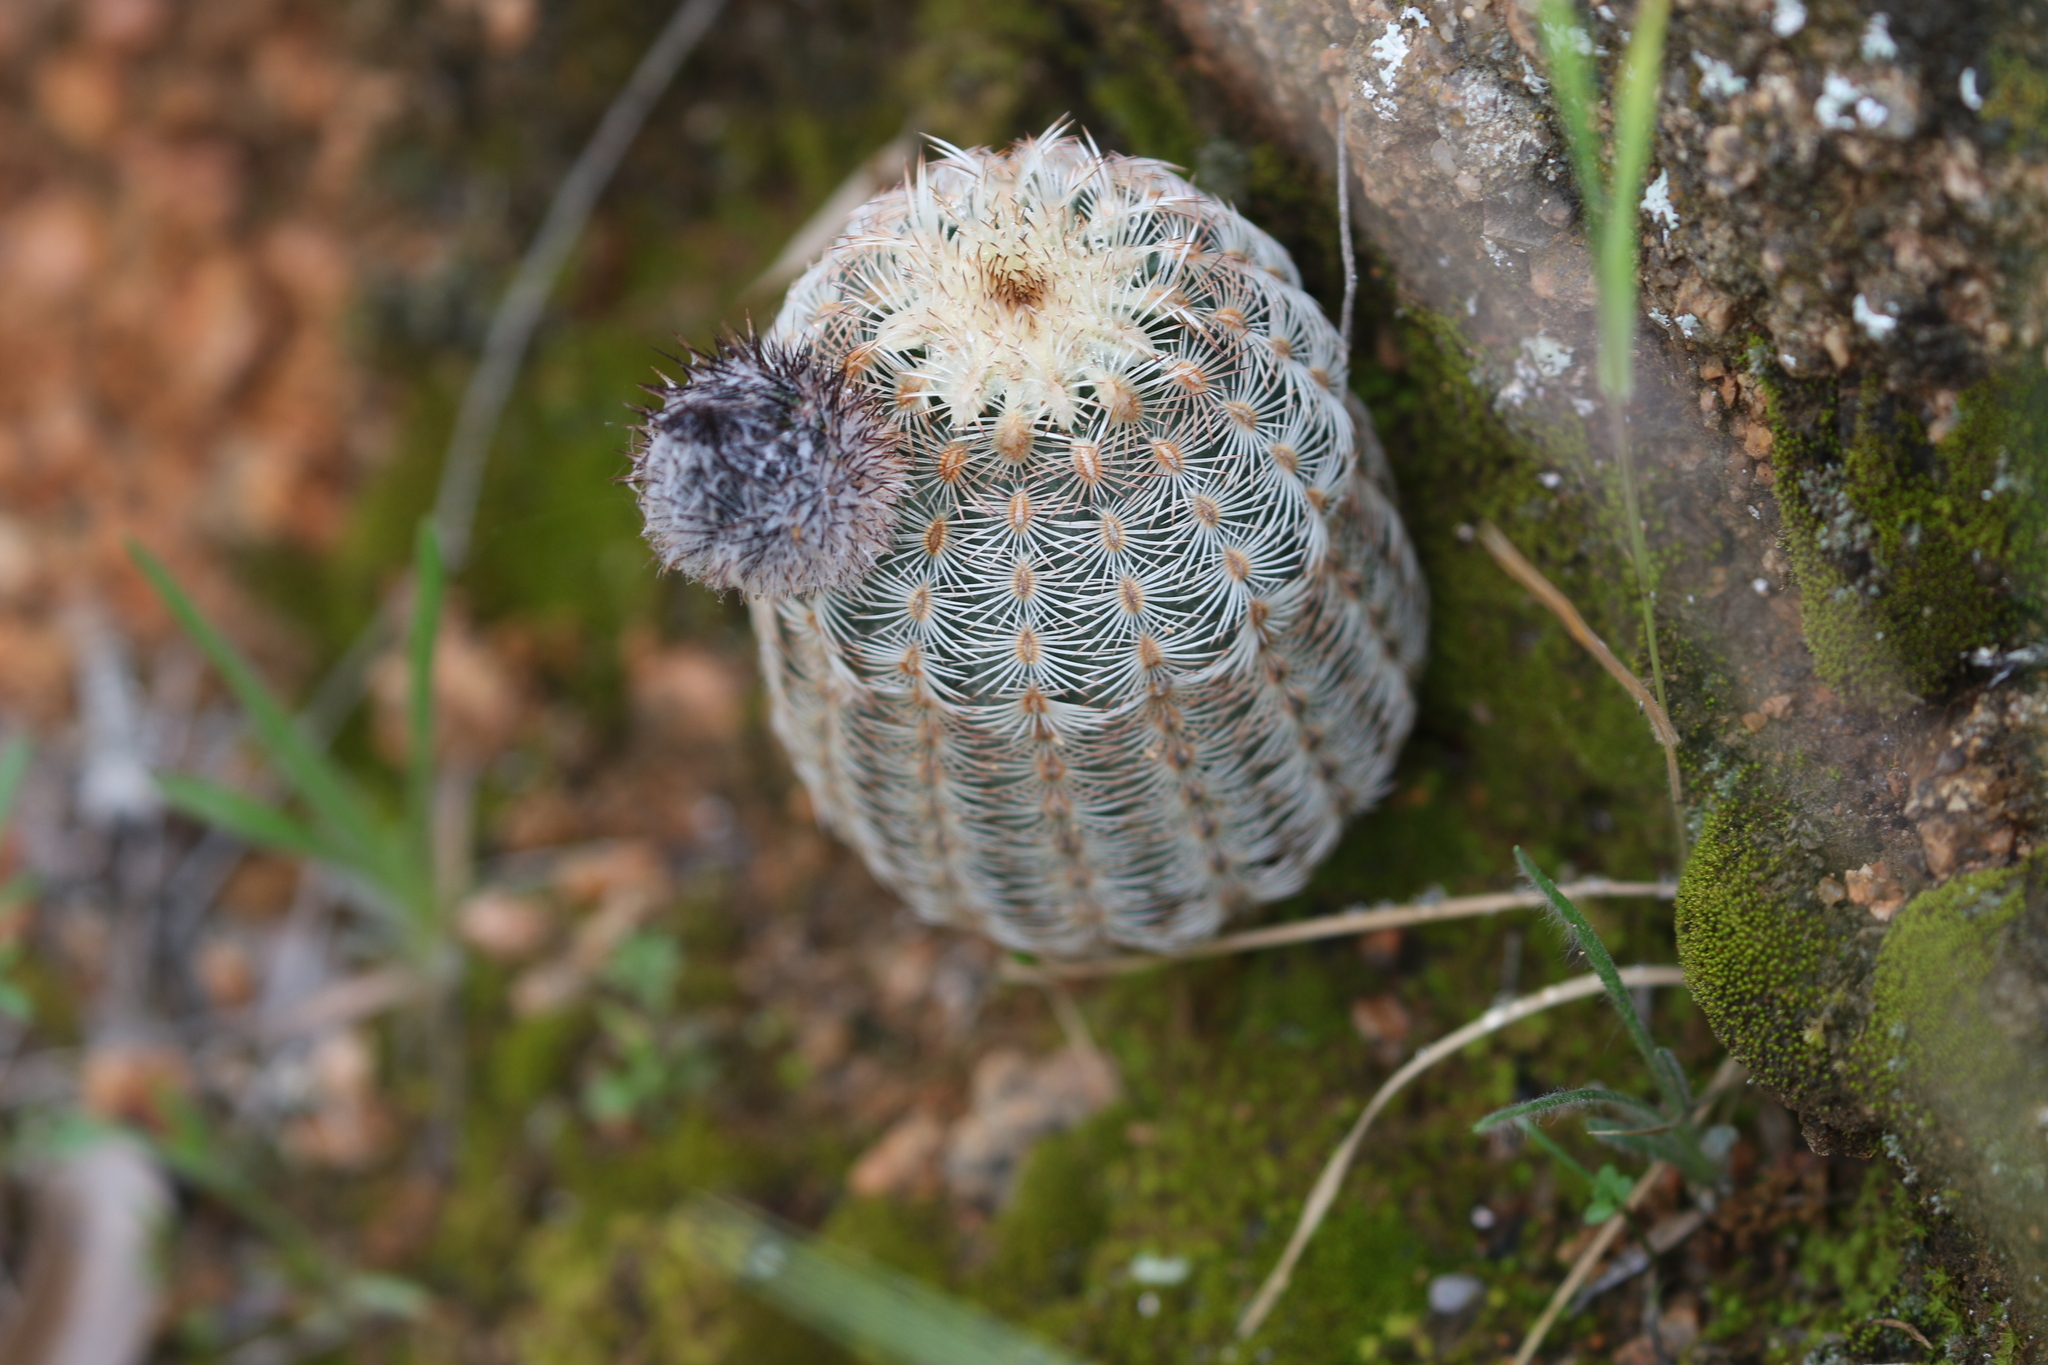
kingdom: Plantae
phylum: Tracheophyta
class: Magnoliopsida
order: Caryophyllales
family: Cactaceae
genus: Echinocereus
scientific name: Echinocereus reichenbachii
